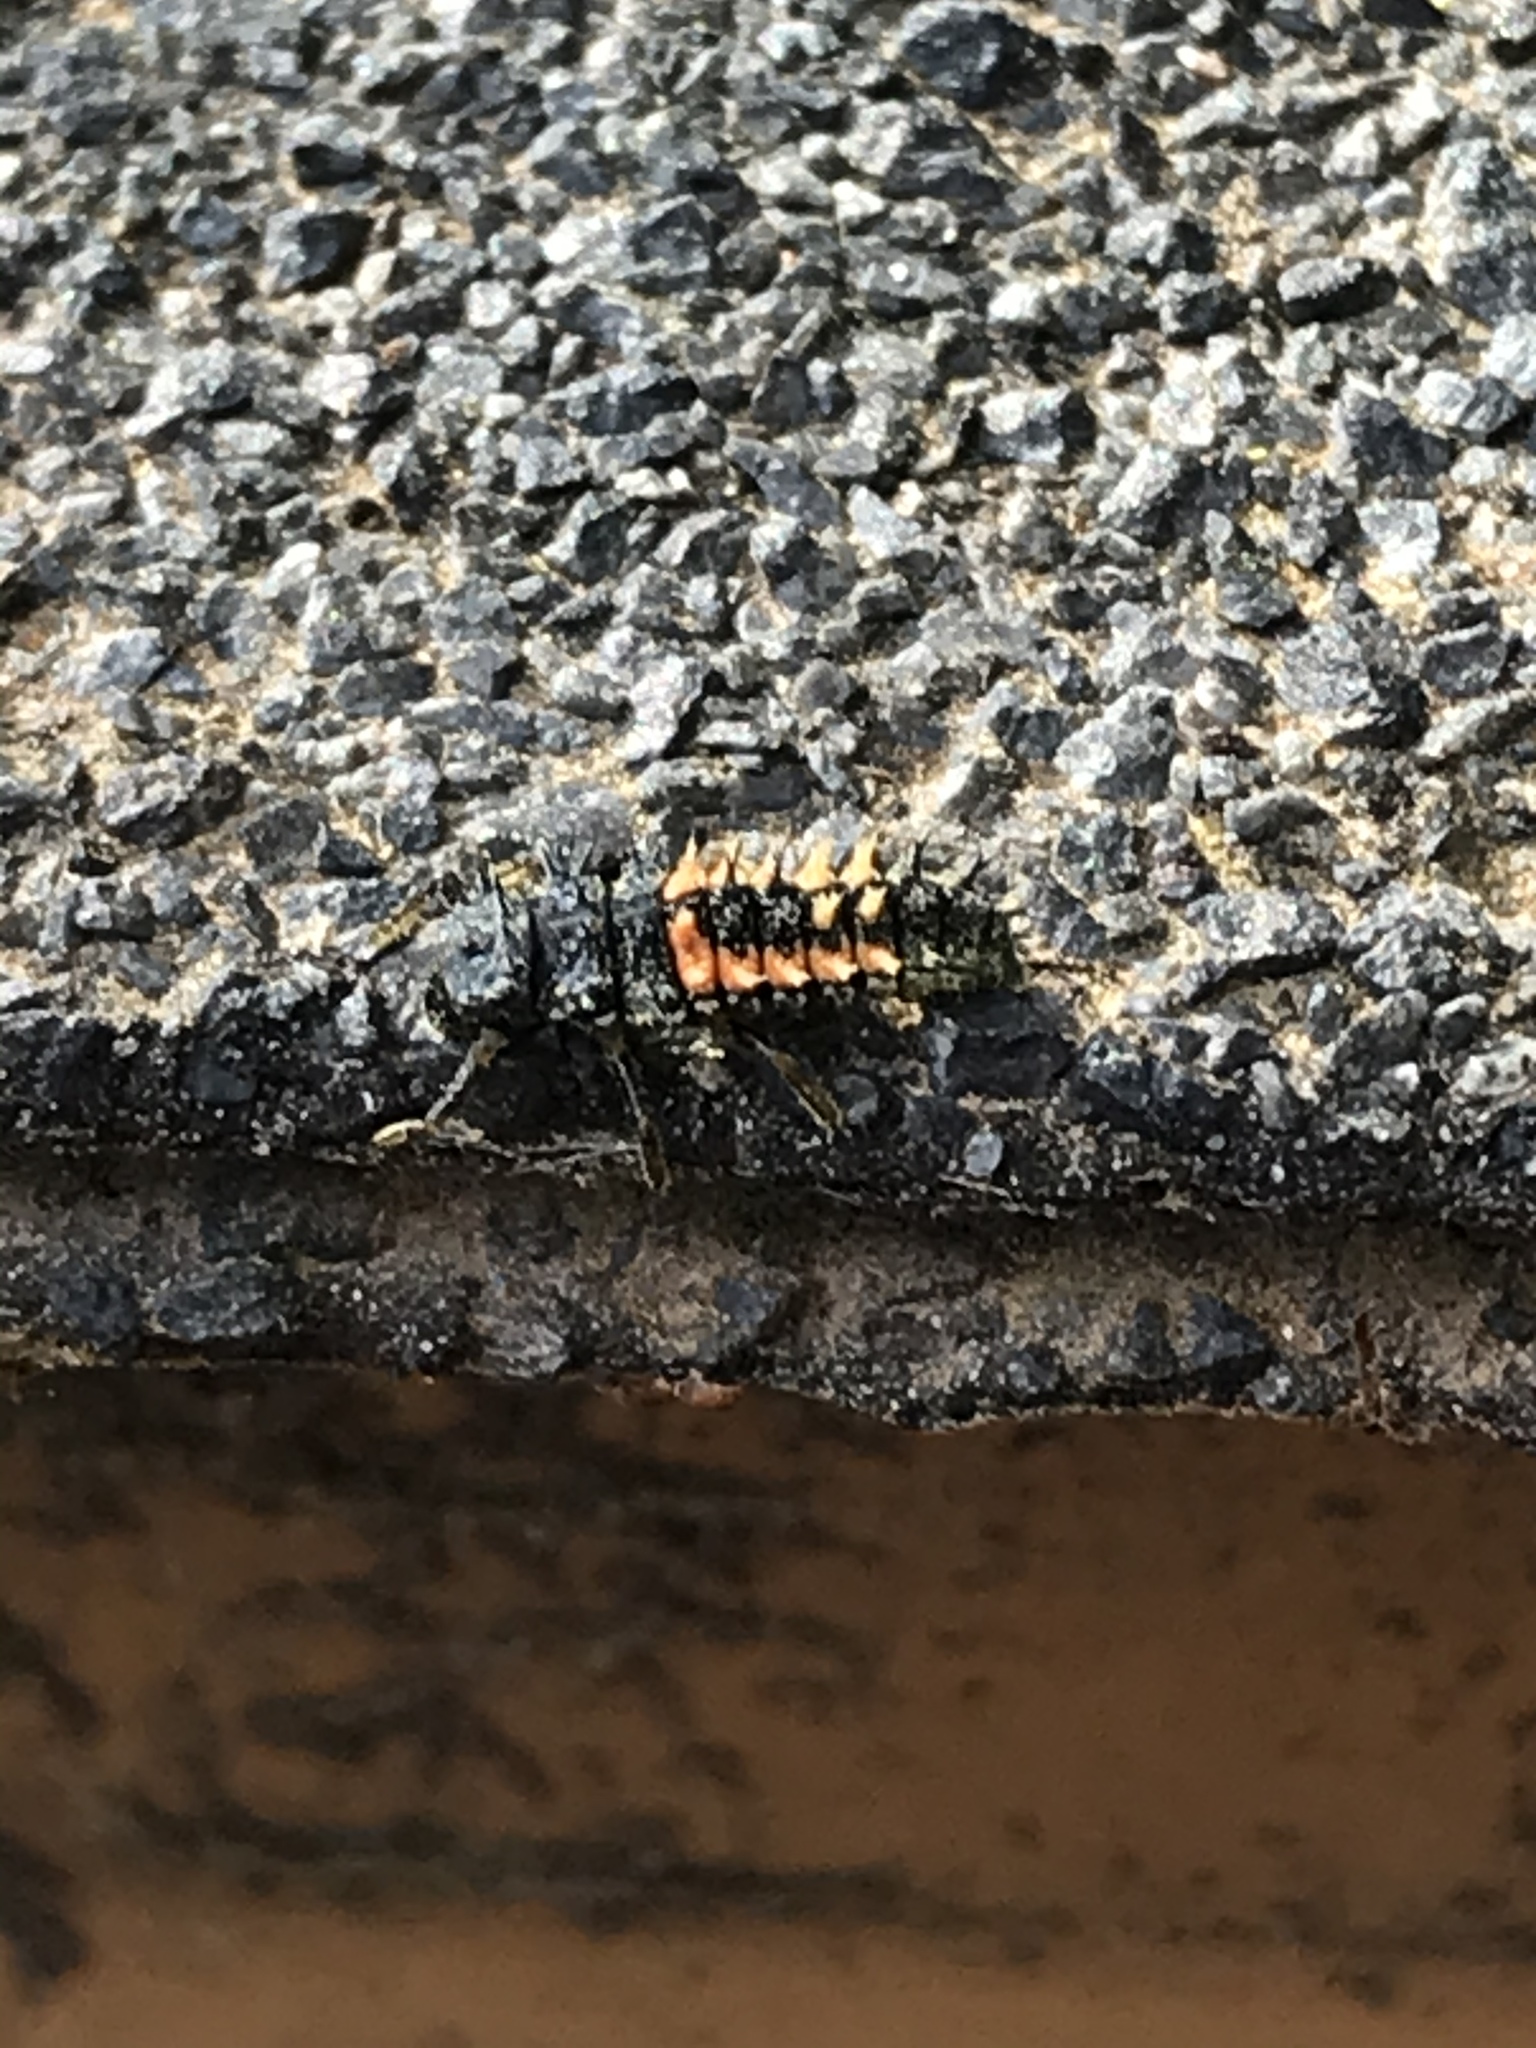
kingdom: Animalia
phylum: Arthropoda
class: Insecta
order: Coleoptera
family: Coccinellidae
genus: Harmonia
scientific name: Harmonia axyridis
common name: Harlequin ladybird
